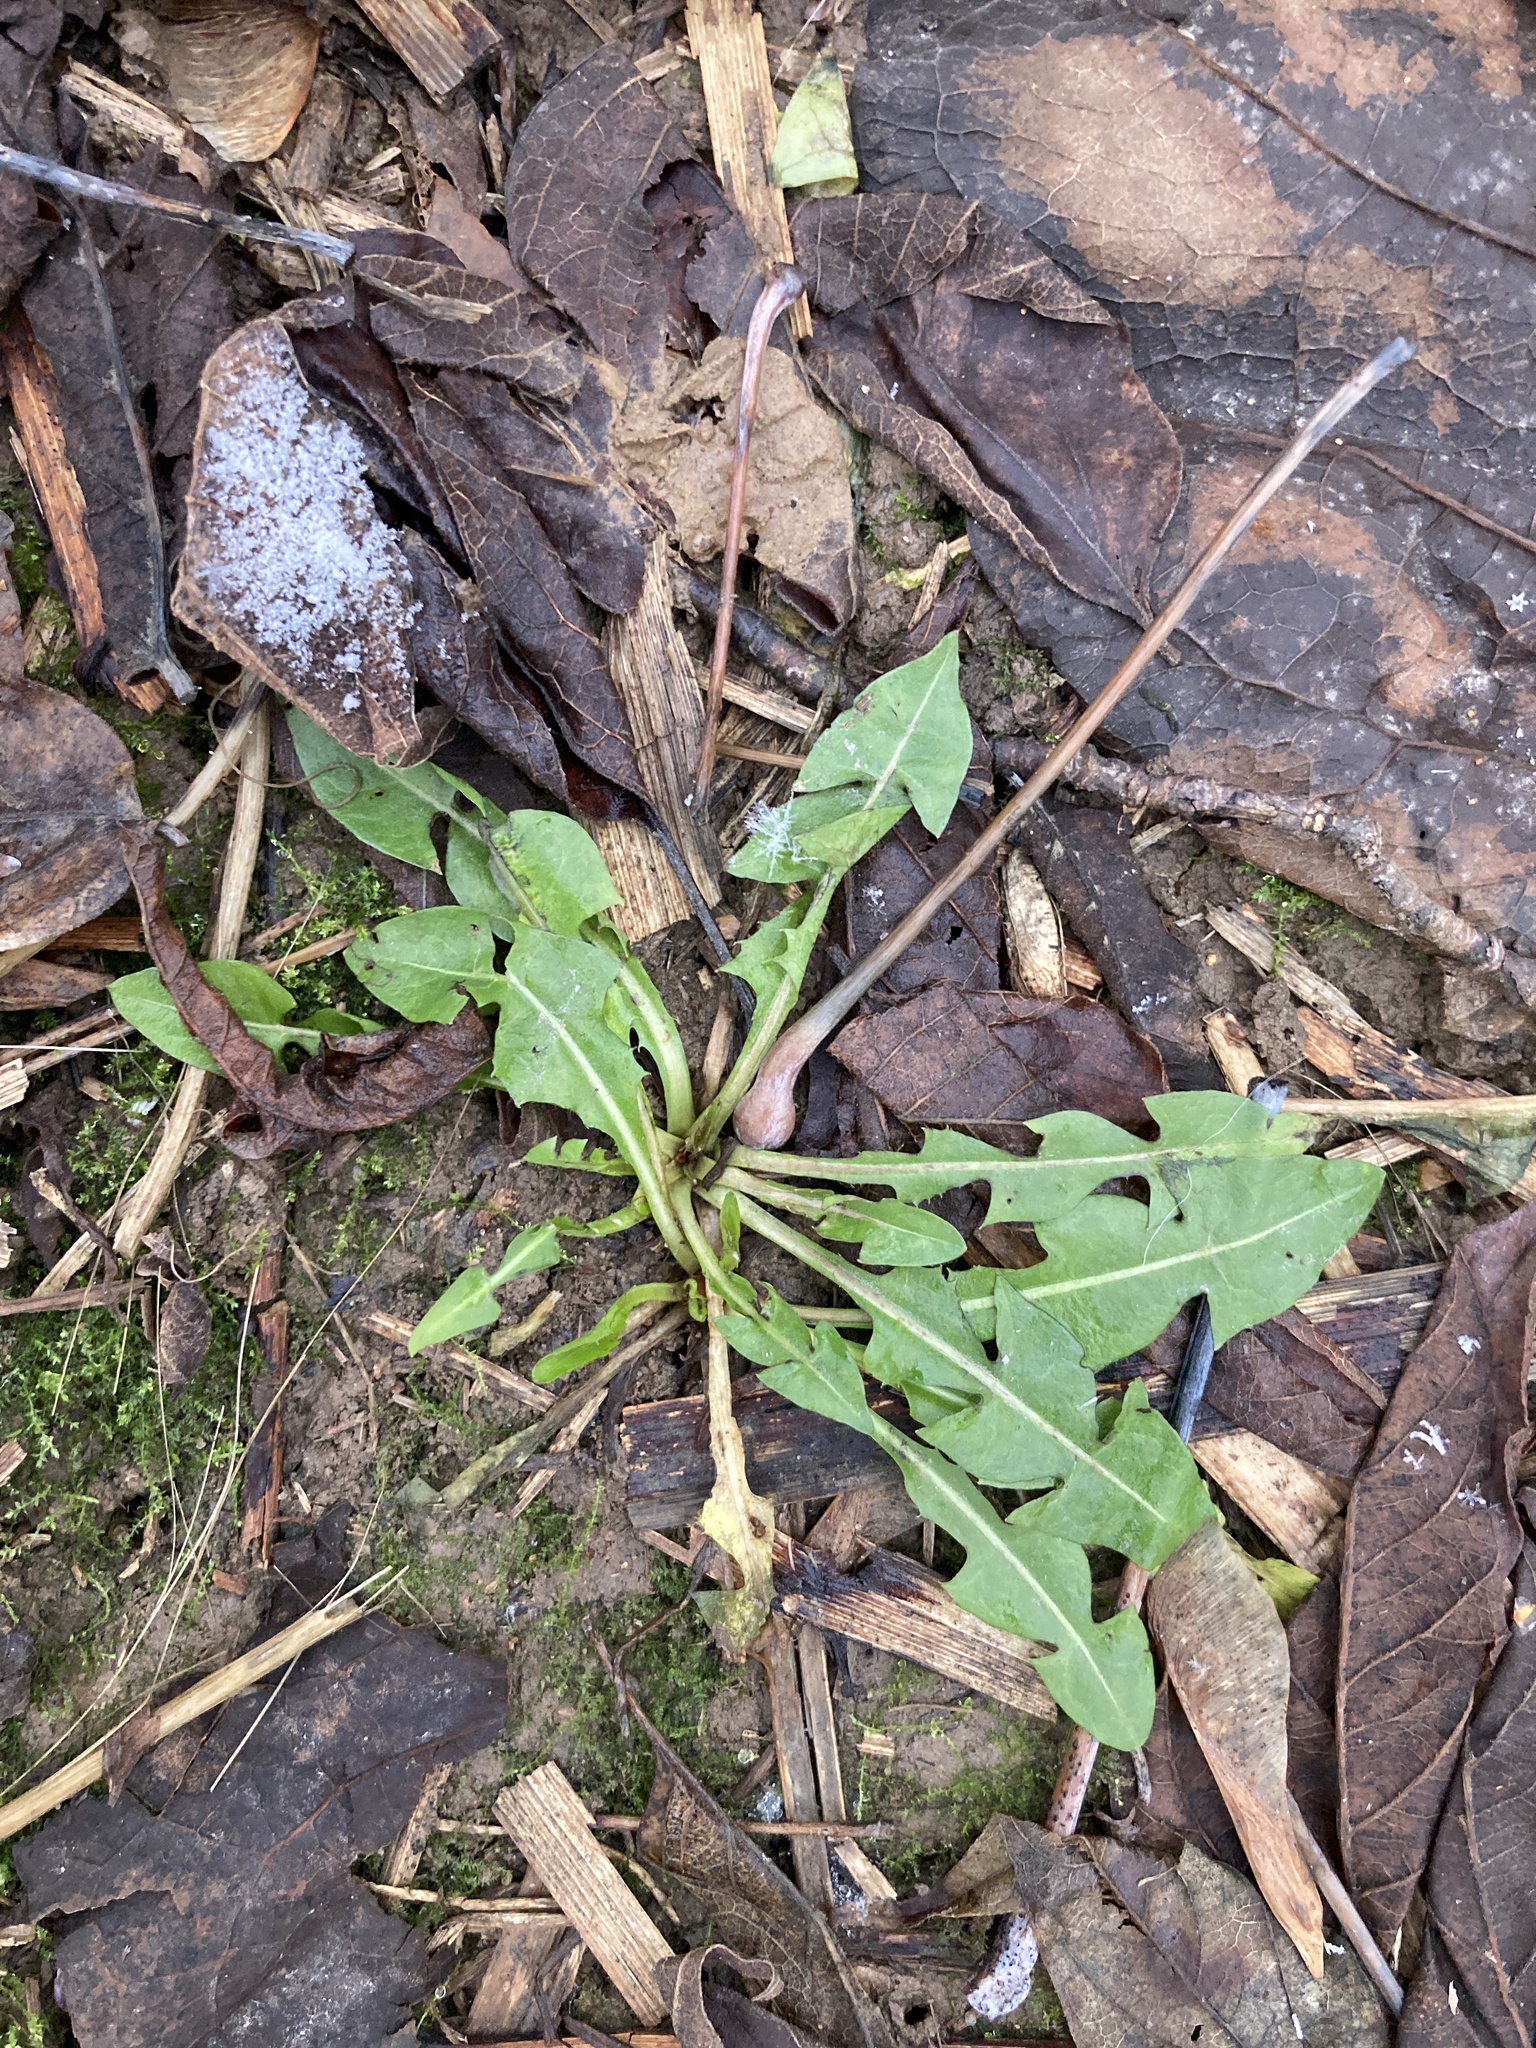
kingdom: Plantae
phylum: Tracheophyta
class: Magnoliopsida
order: Asterales
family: Asteraceae
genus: Taraxacum
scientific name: Taraxacum officinale
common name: Common dandelion
